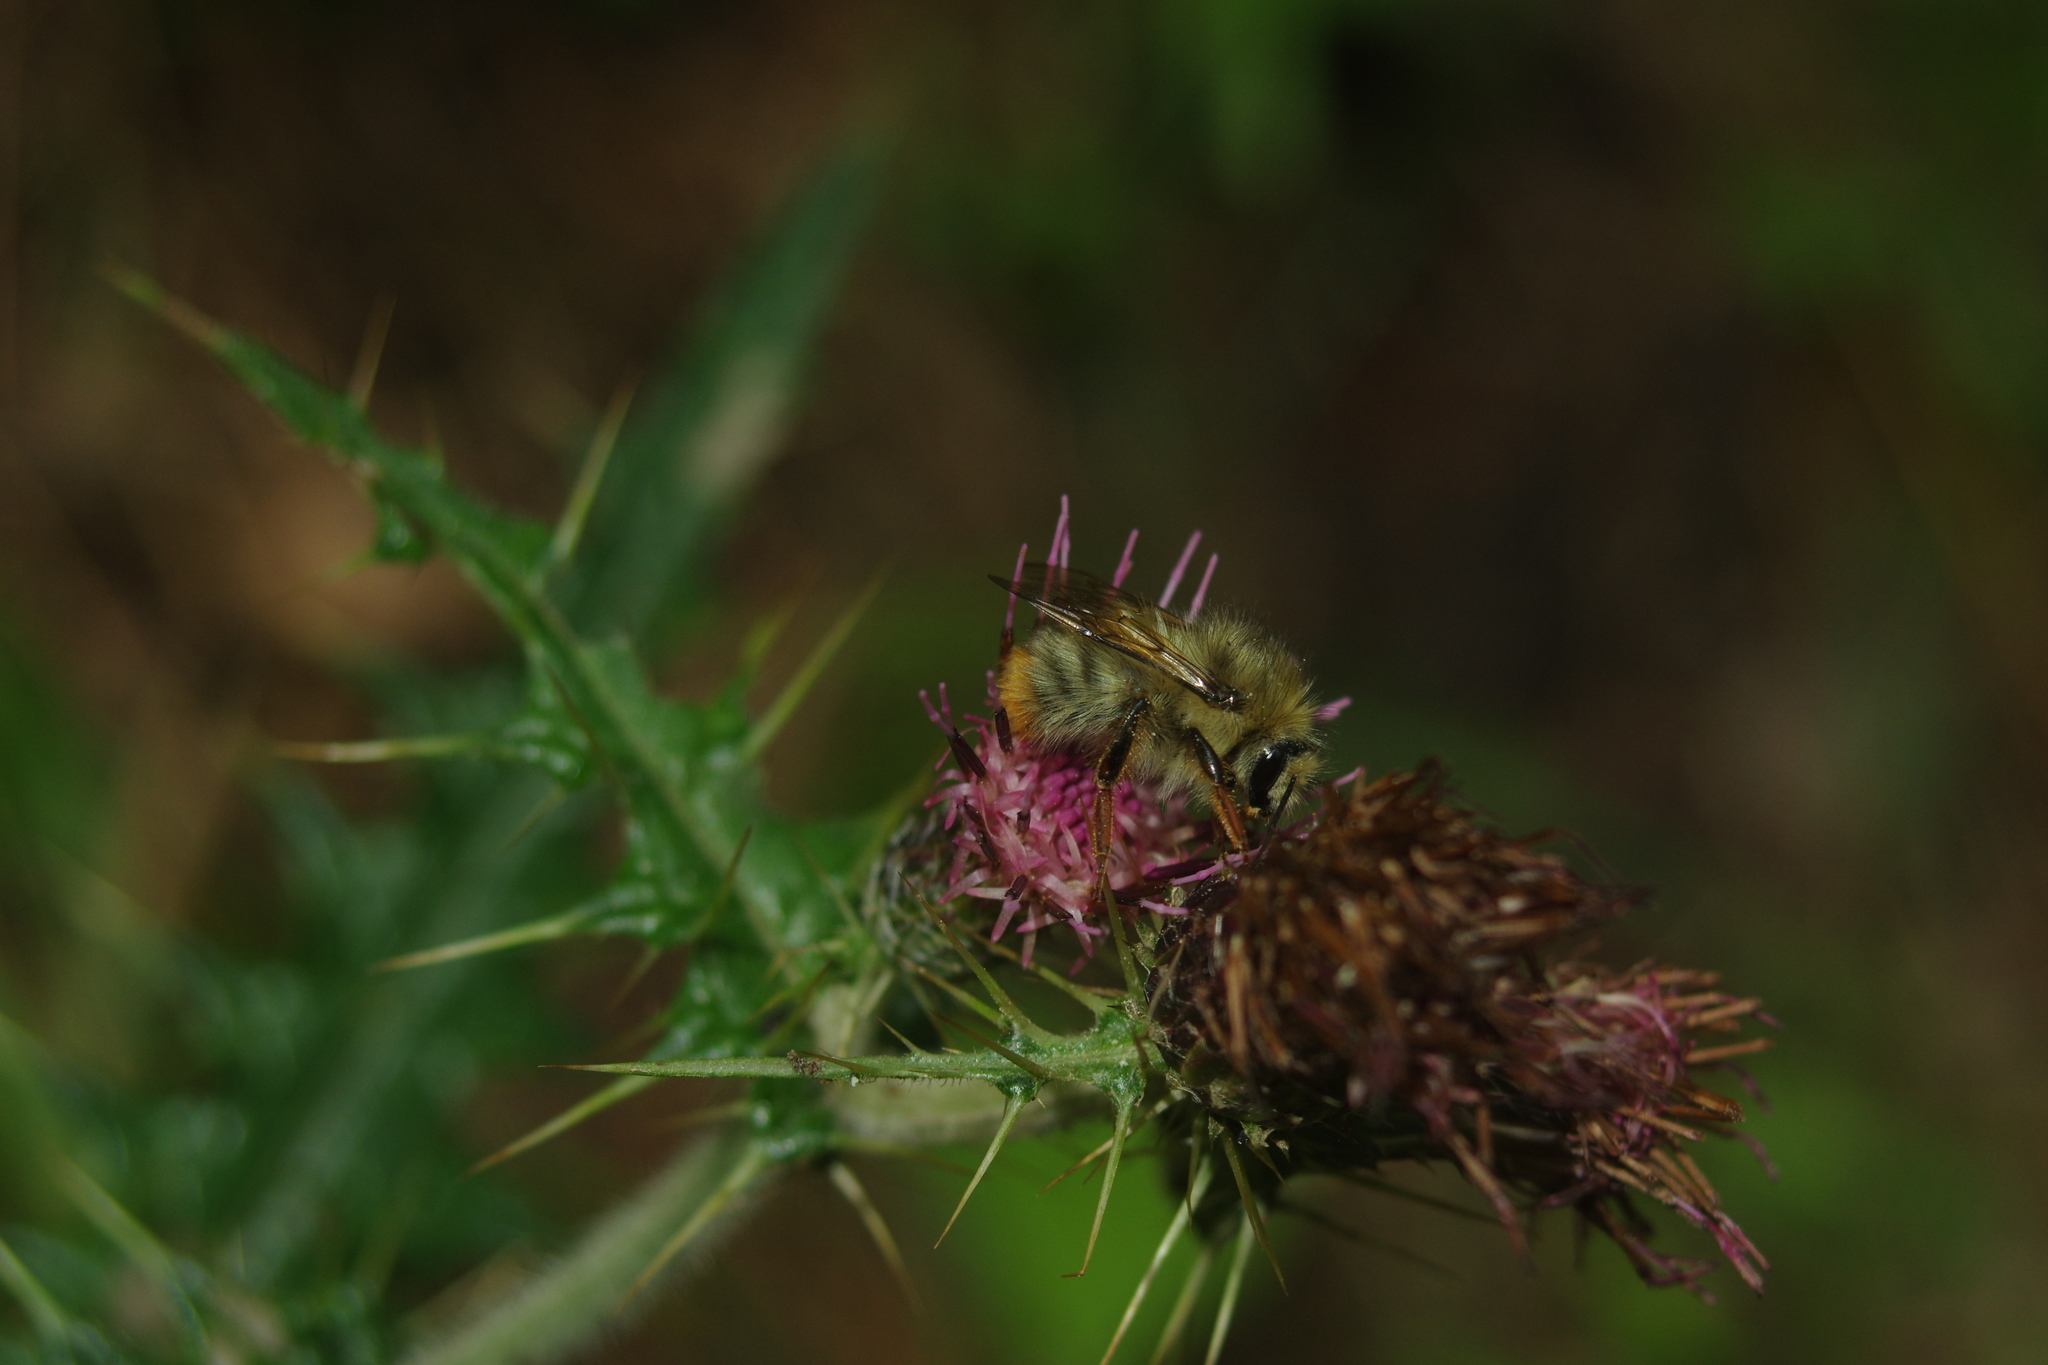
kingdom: Animalia
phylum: Arthropoda
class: Insecta
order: Hymenoptera
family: Apidae
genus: Bombus
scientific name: Bombus sonani
